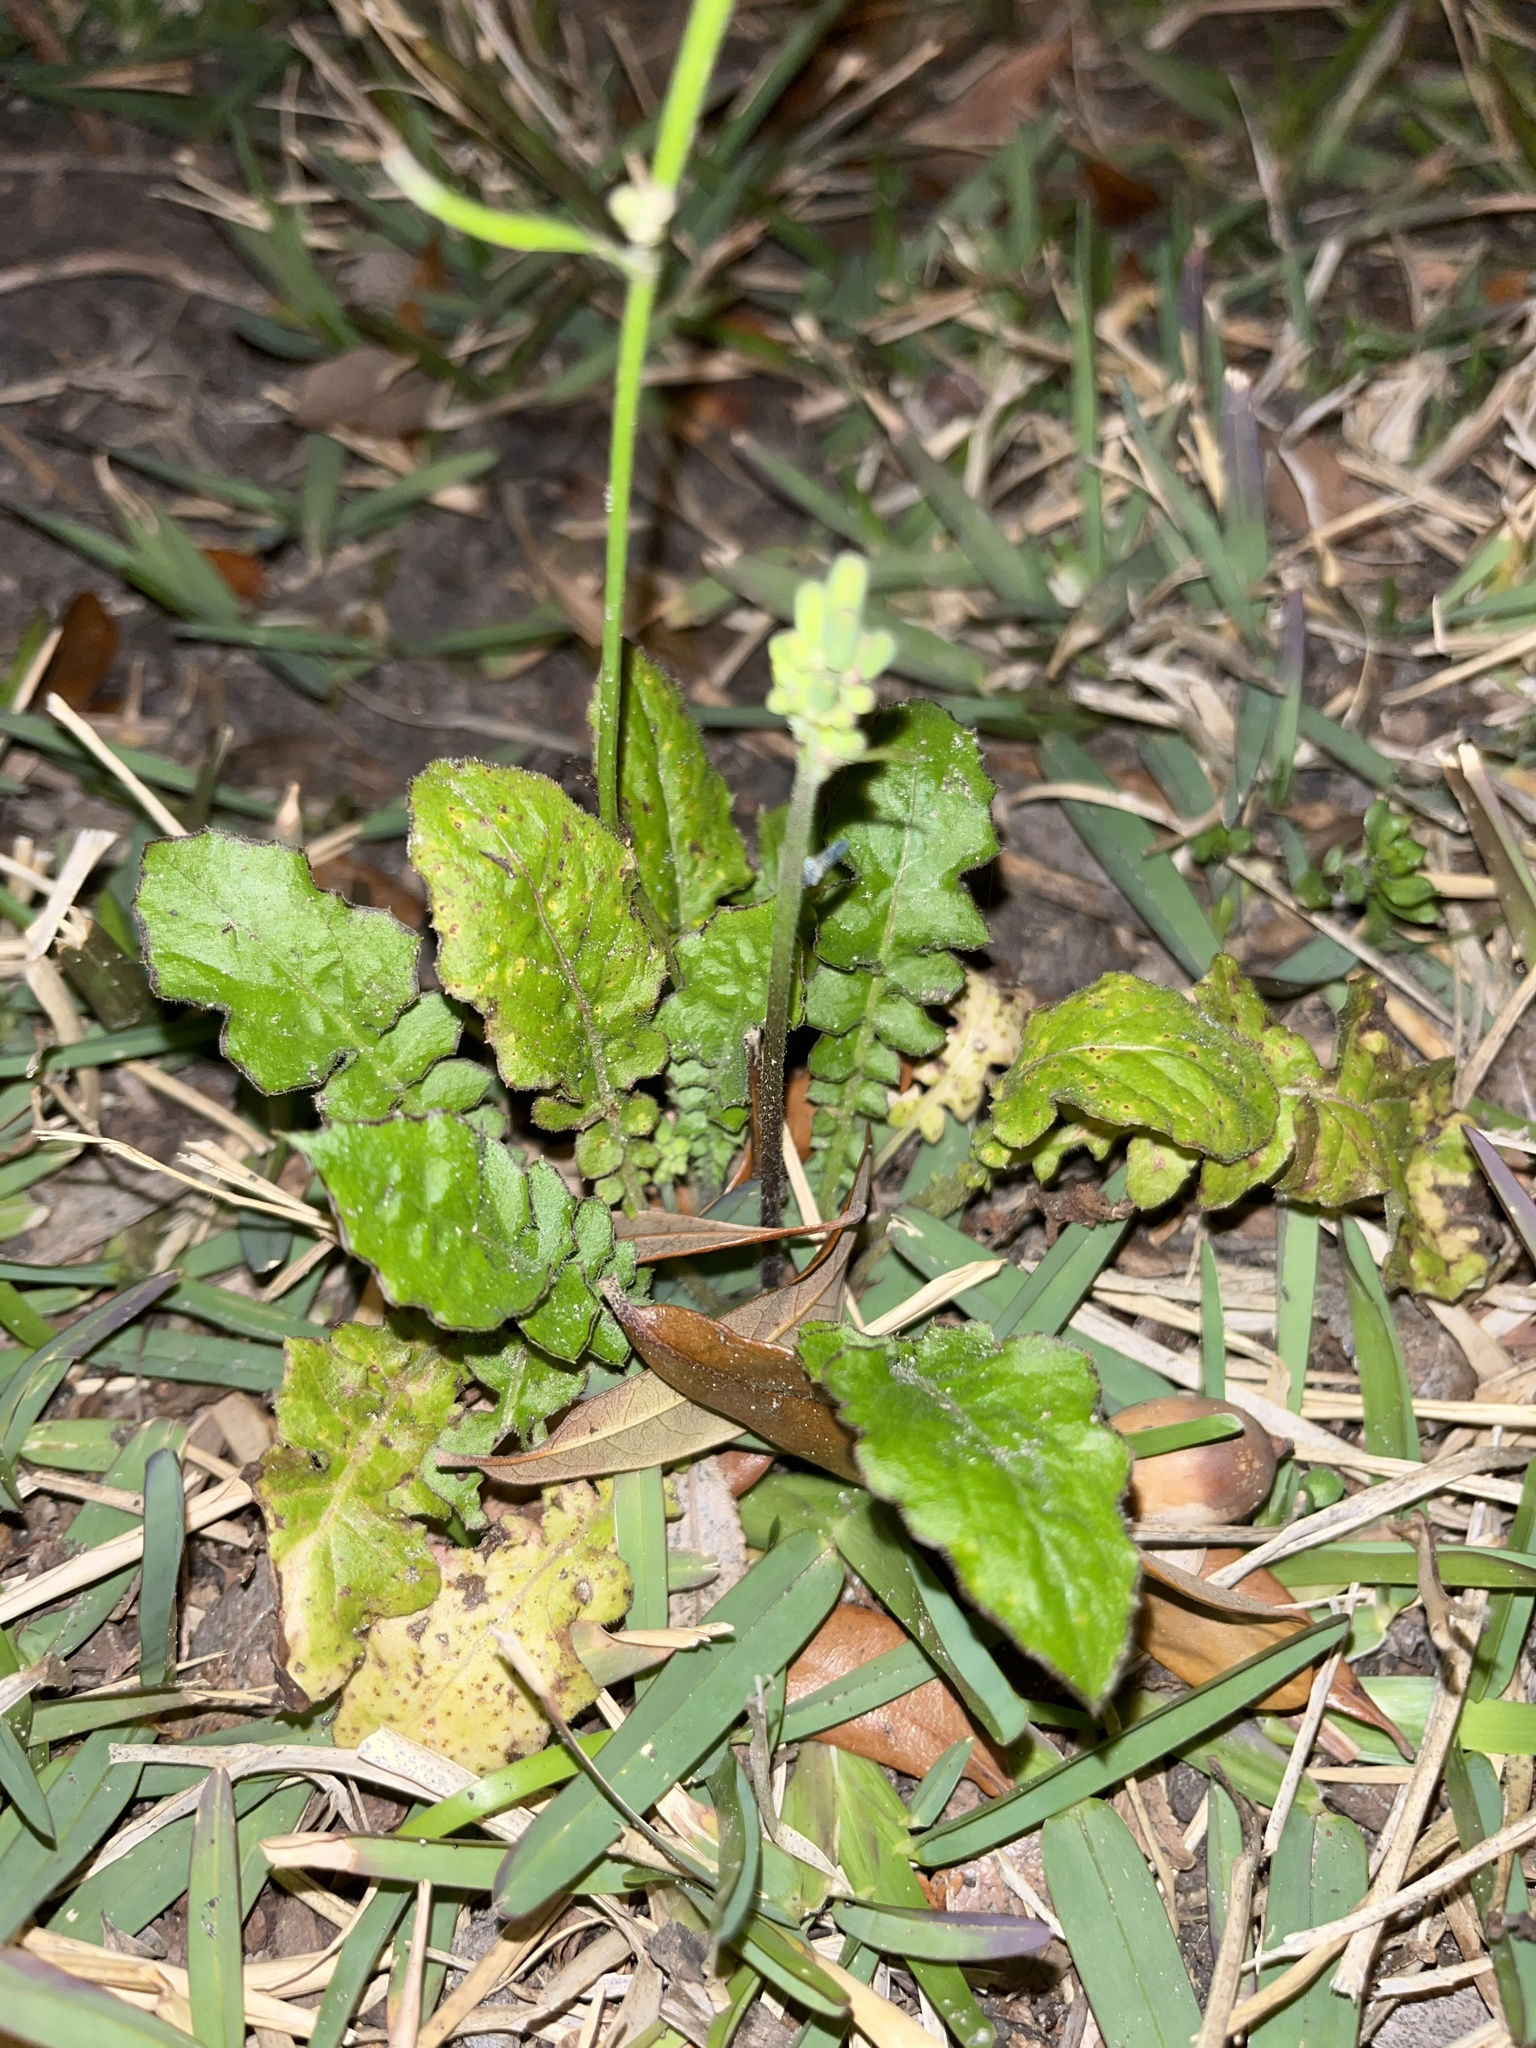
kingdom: Plantae
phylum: Tracheophyta
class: Magnoliopsida
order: Asterales
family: Asteraceae
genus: Youngia
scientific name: Youngia japonica
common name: Oriental false hawksbeard
